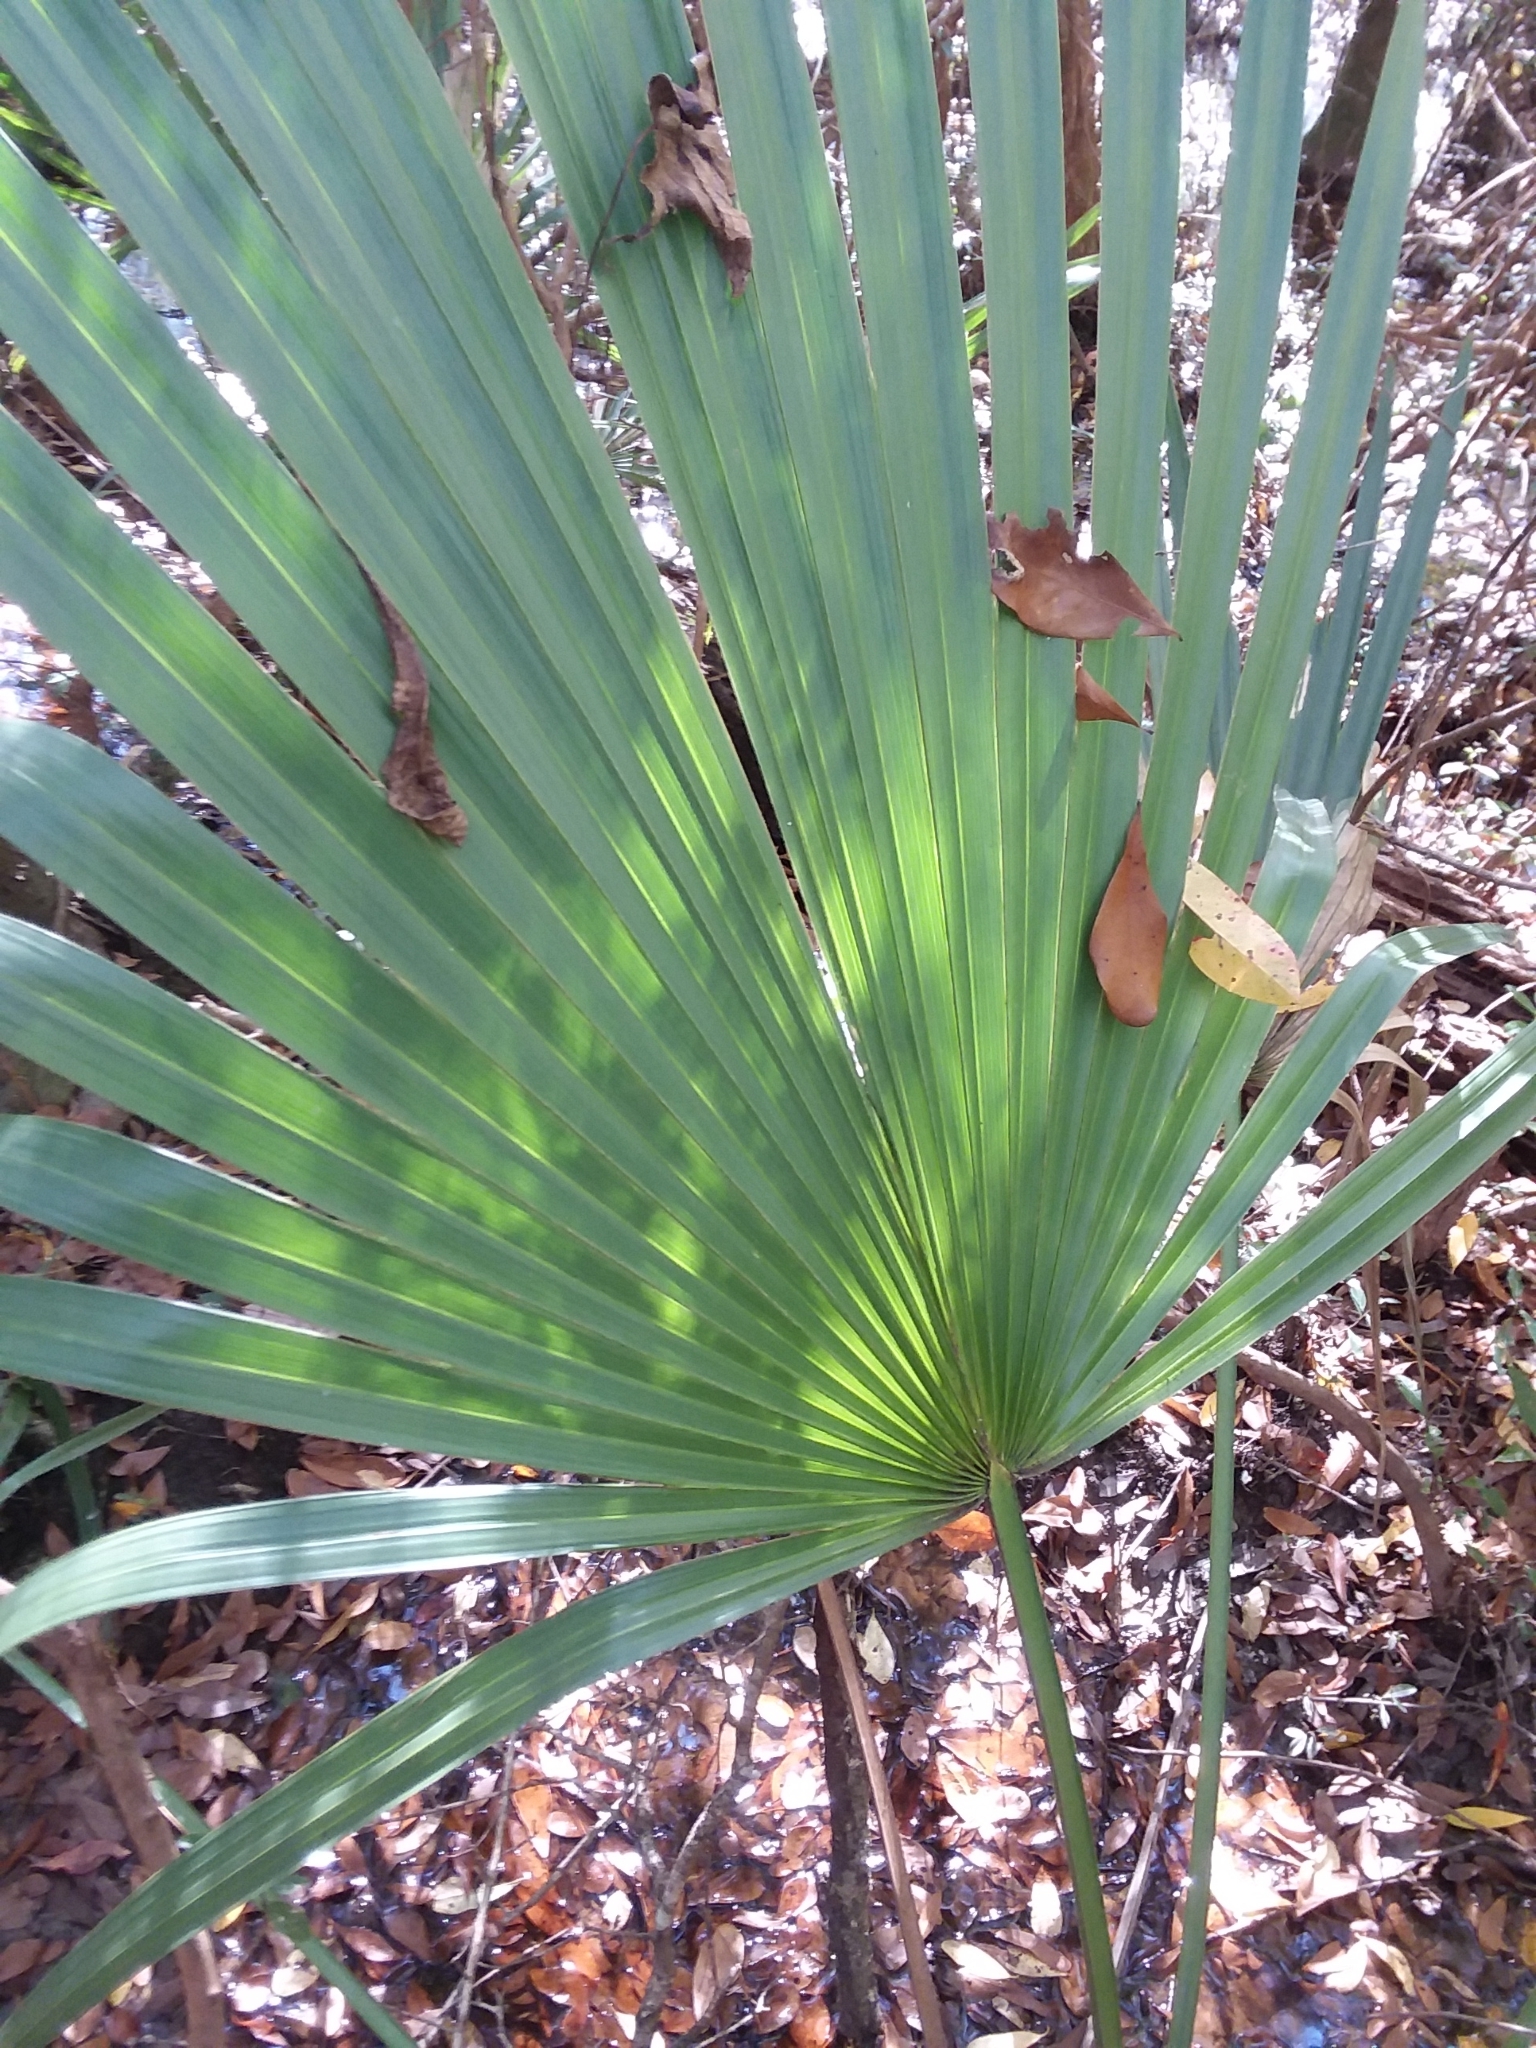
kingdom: Plantae
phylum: Tracheophyta
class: Liliopsida
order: Arecales
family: Arecaceae
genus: Sabal
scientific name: Sabal minor
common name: Dwarf palmetto
